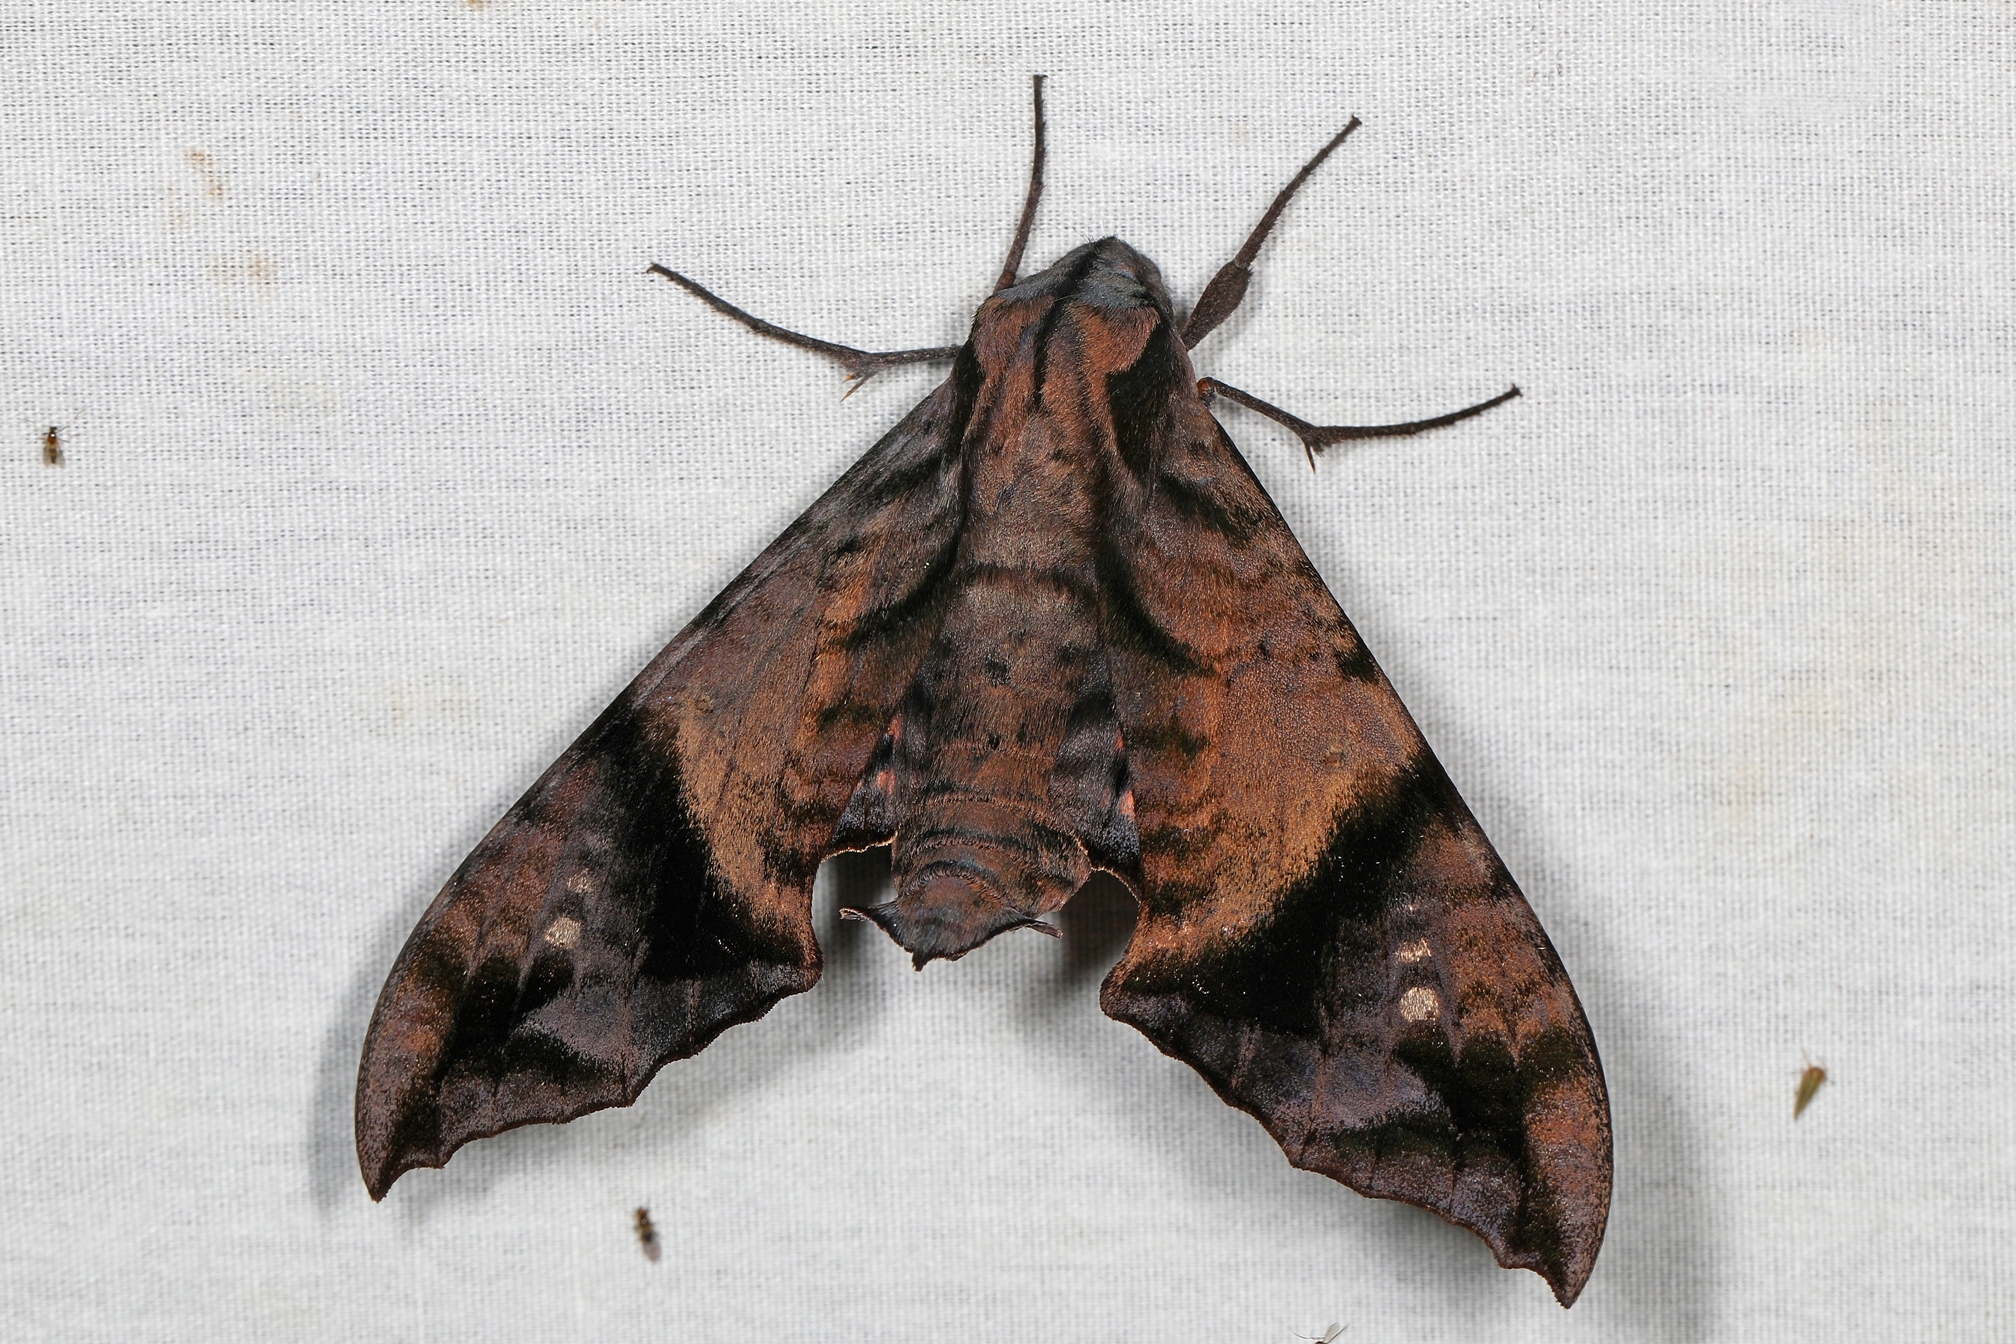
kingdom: Animalia
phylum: Arthropoda
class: Insecta
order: Lepidoptera
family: Sphingidae
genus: Nyceryx
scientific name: Nyceryx hyposticta
